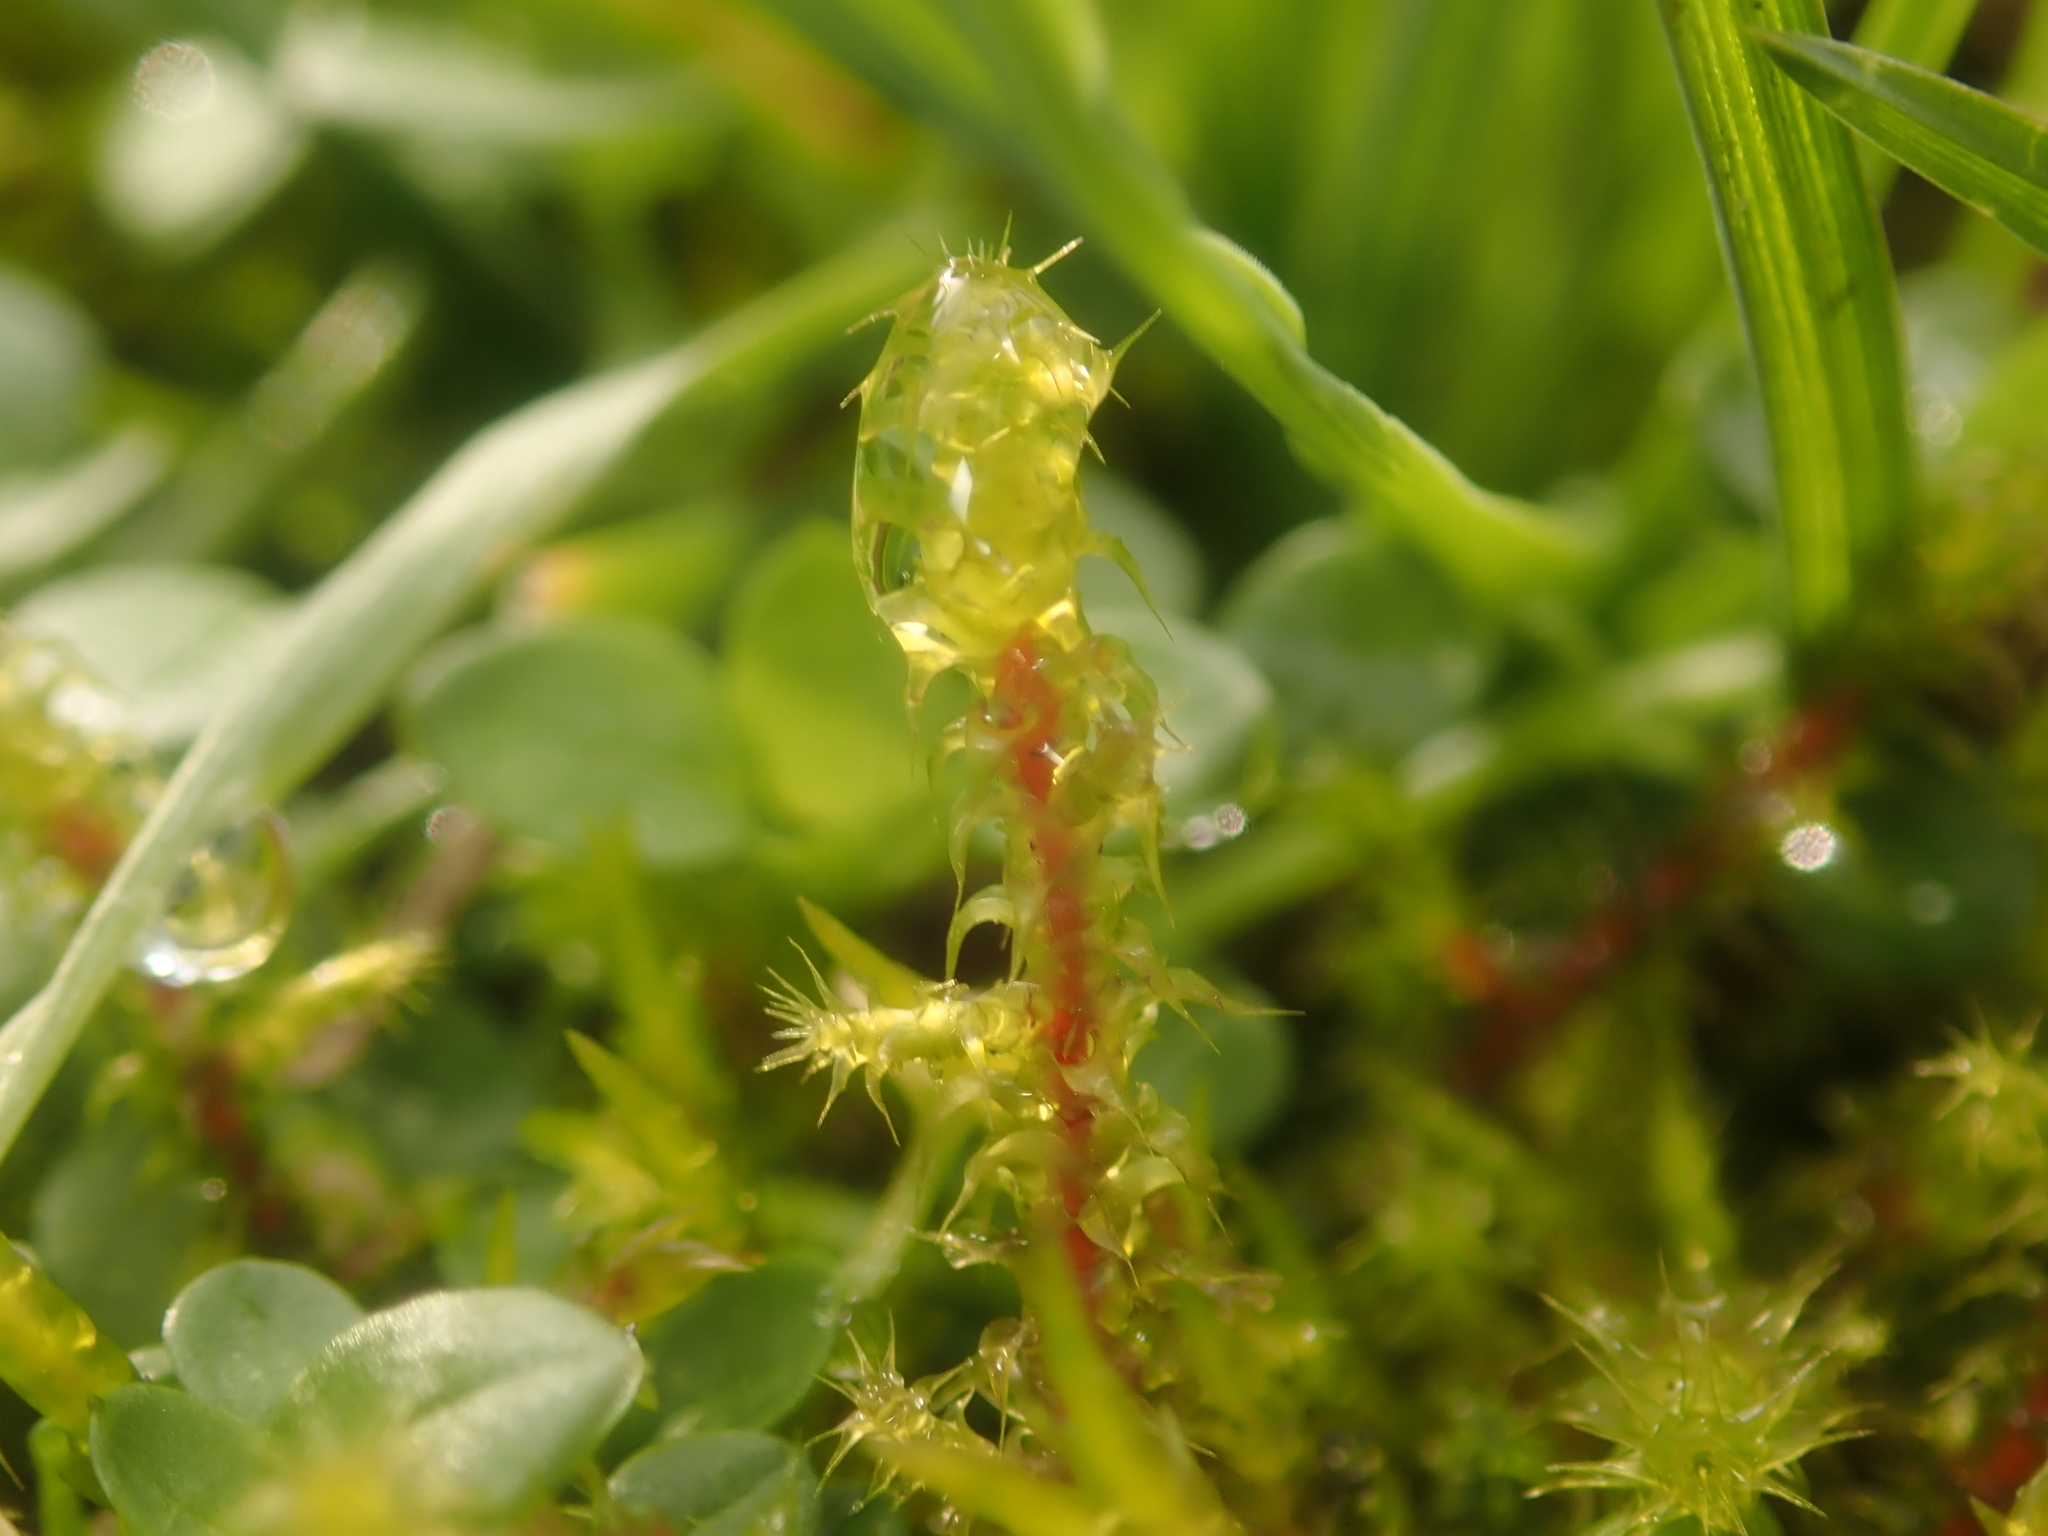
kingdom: Plantae
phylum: Bryophyta
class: Bryopsida
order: Hypnales
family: Hylocomiaceae
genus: Rhytidiadelphus
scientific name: Rhytidiadelphus squarrosus
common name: Springy turf-moss
